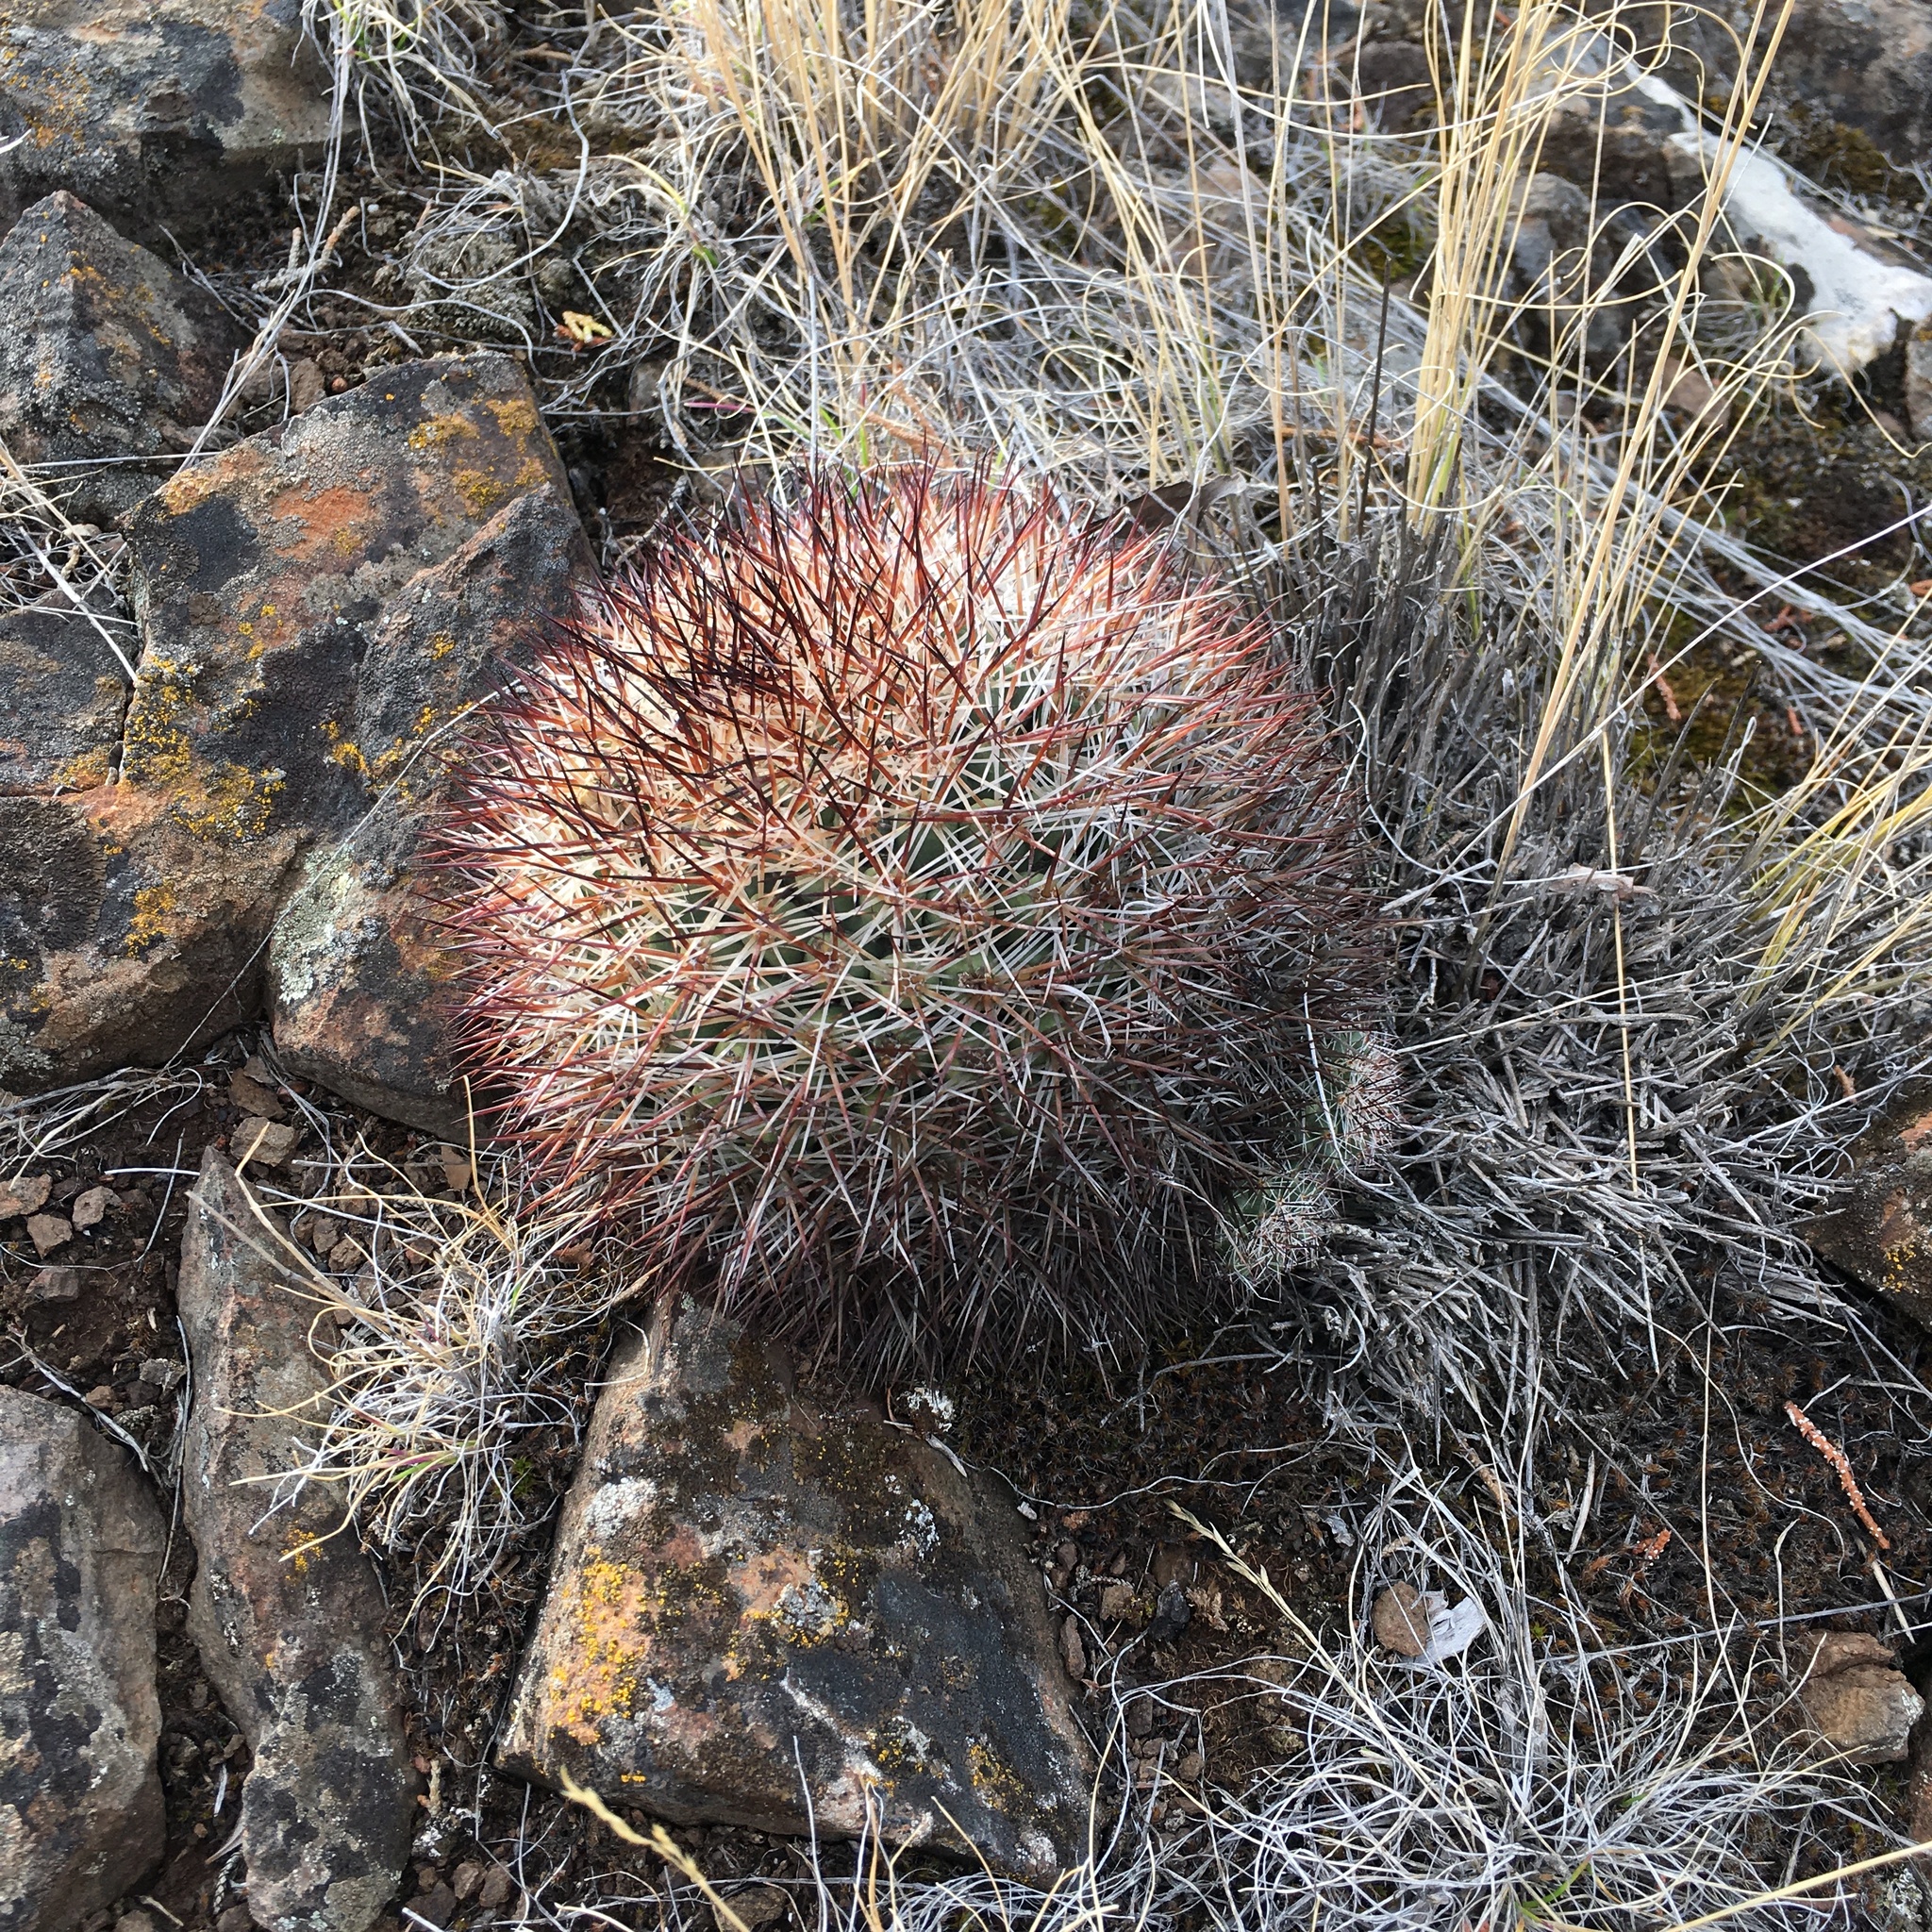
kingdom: Plantae
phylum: Tracheophyta
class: Magnoliopsida
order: Caryophyllales
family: Cactaceae
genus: Pediocactus
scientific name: Pediocactus nigrispinus
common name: Simpson's hedgehog cactus
